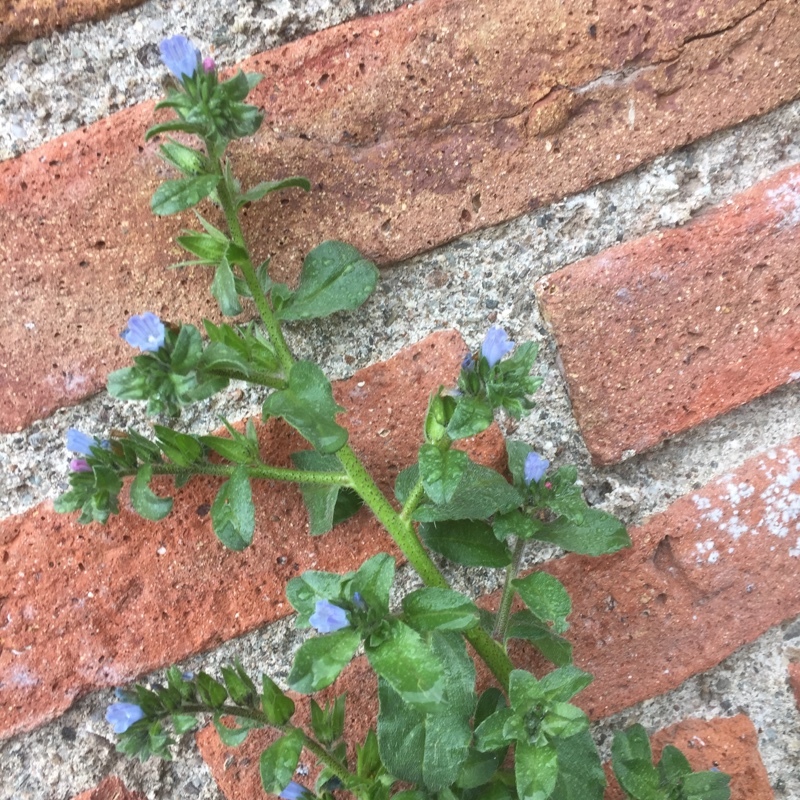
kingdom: Plantae
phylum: Tracheophyta
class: Magnoliopsida
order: Boraginales
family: Boraginaceae
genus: Echium
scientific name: Echium parviflorum
